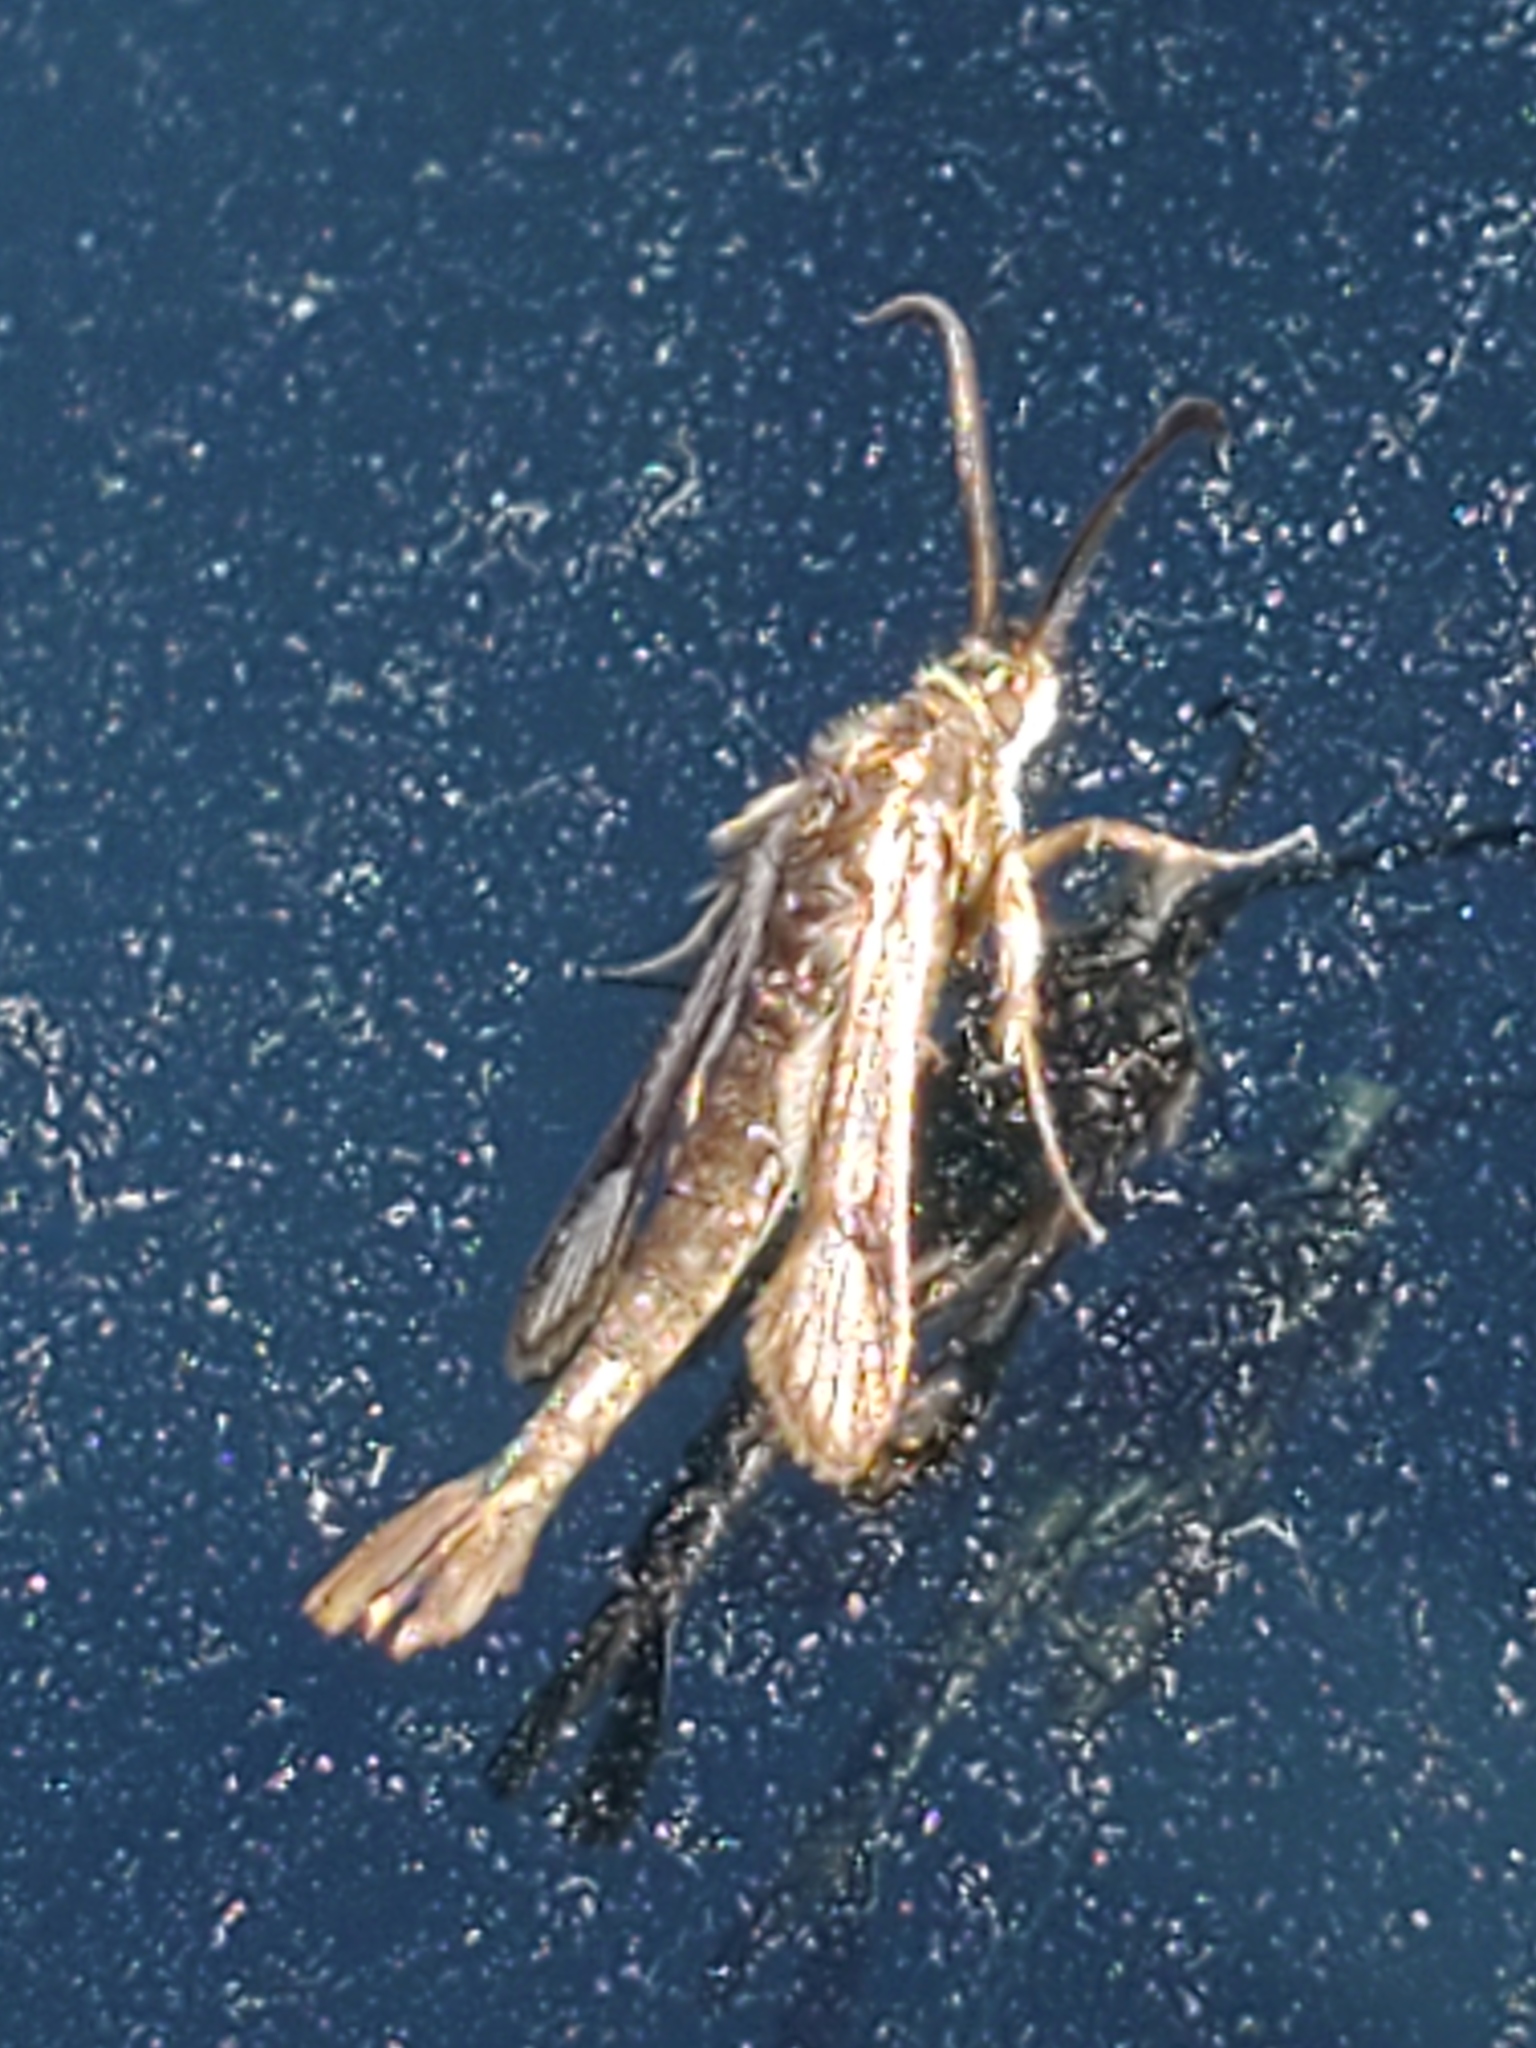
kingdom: Animalia
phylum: Arthropoda
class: Insecta
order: Lepidoptera
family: Sesiidae
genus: Carmenta
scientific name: Carmenta albociliata
